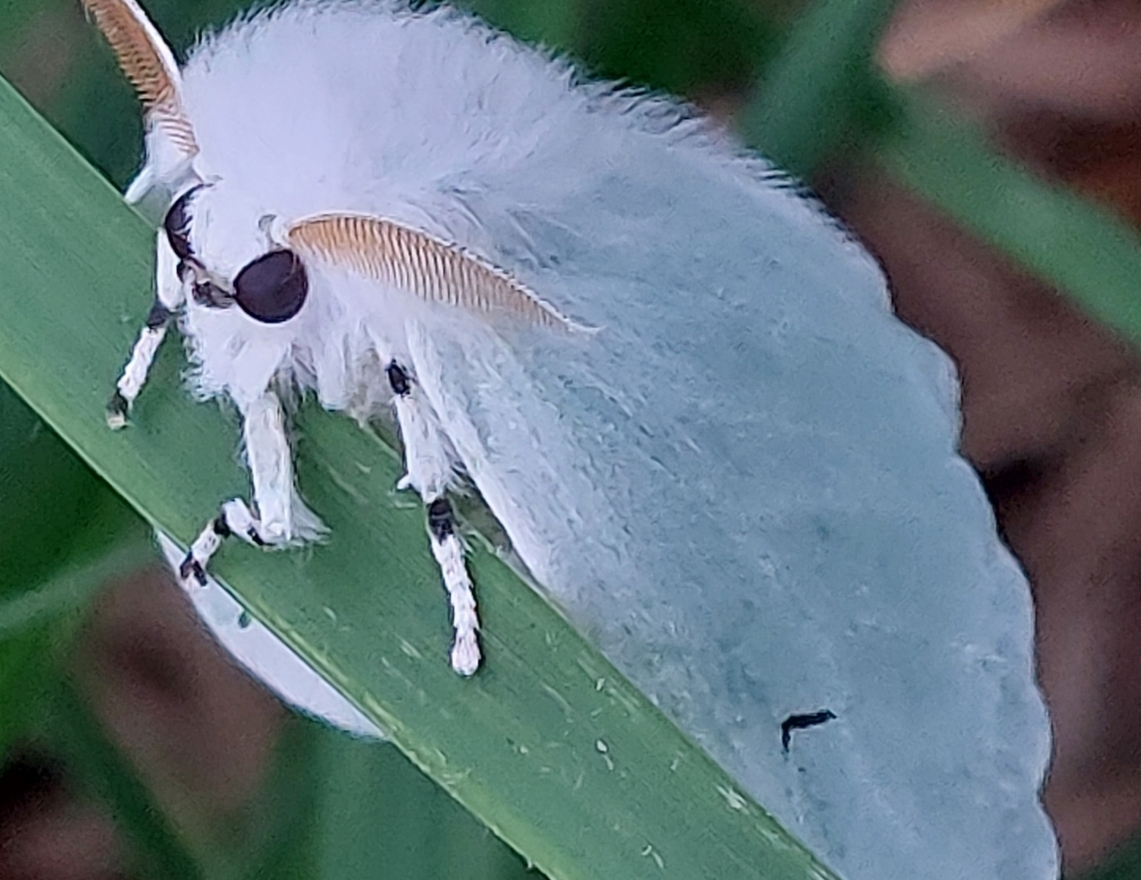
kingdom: Animalia
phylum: Arthropoda
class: Insecta
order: Lepidoptera
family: Erebidae
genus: Arctornis
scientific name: Arctornis l-nigrum
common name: Black v moth
